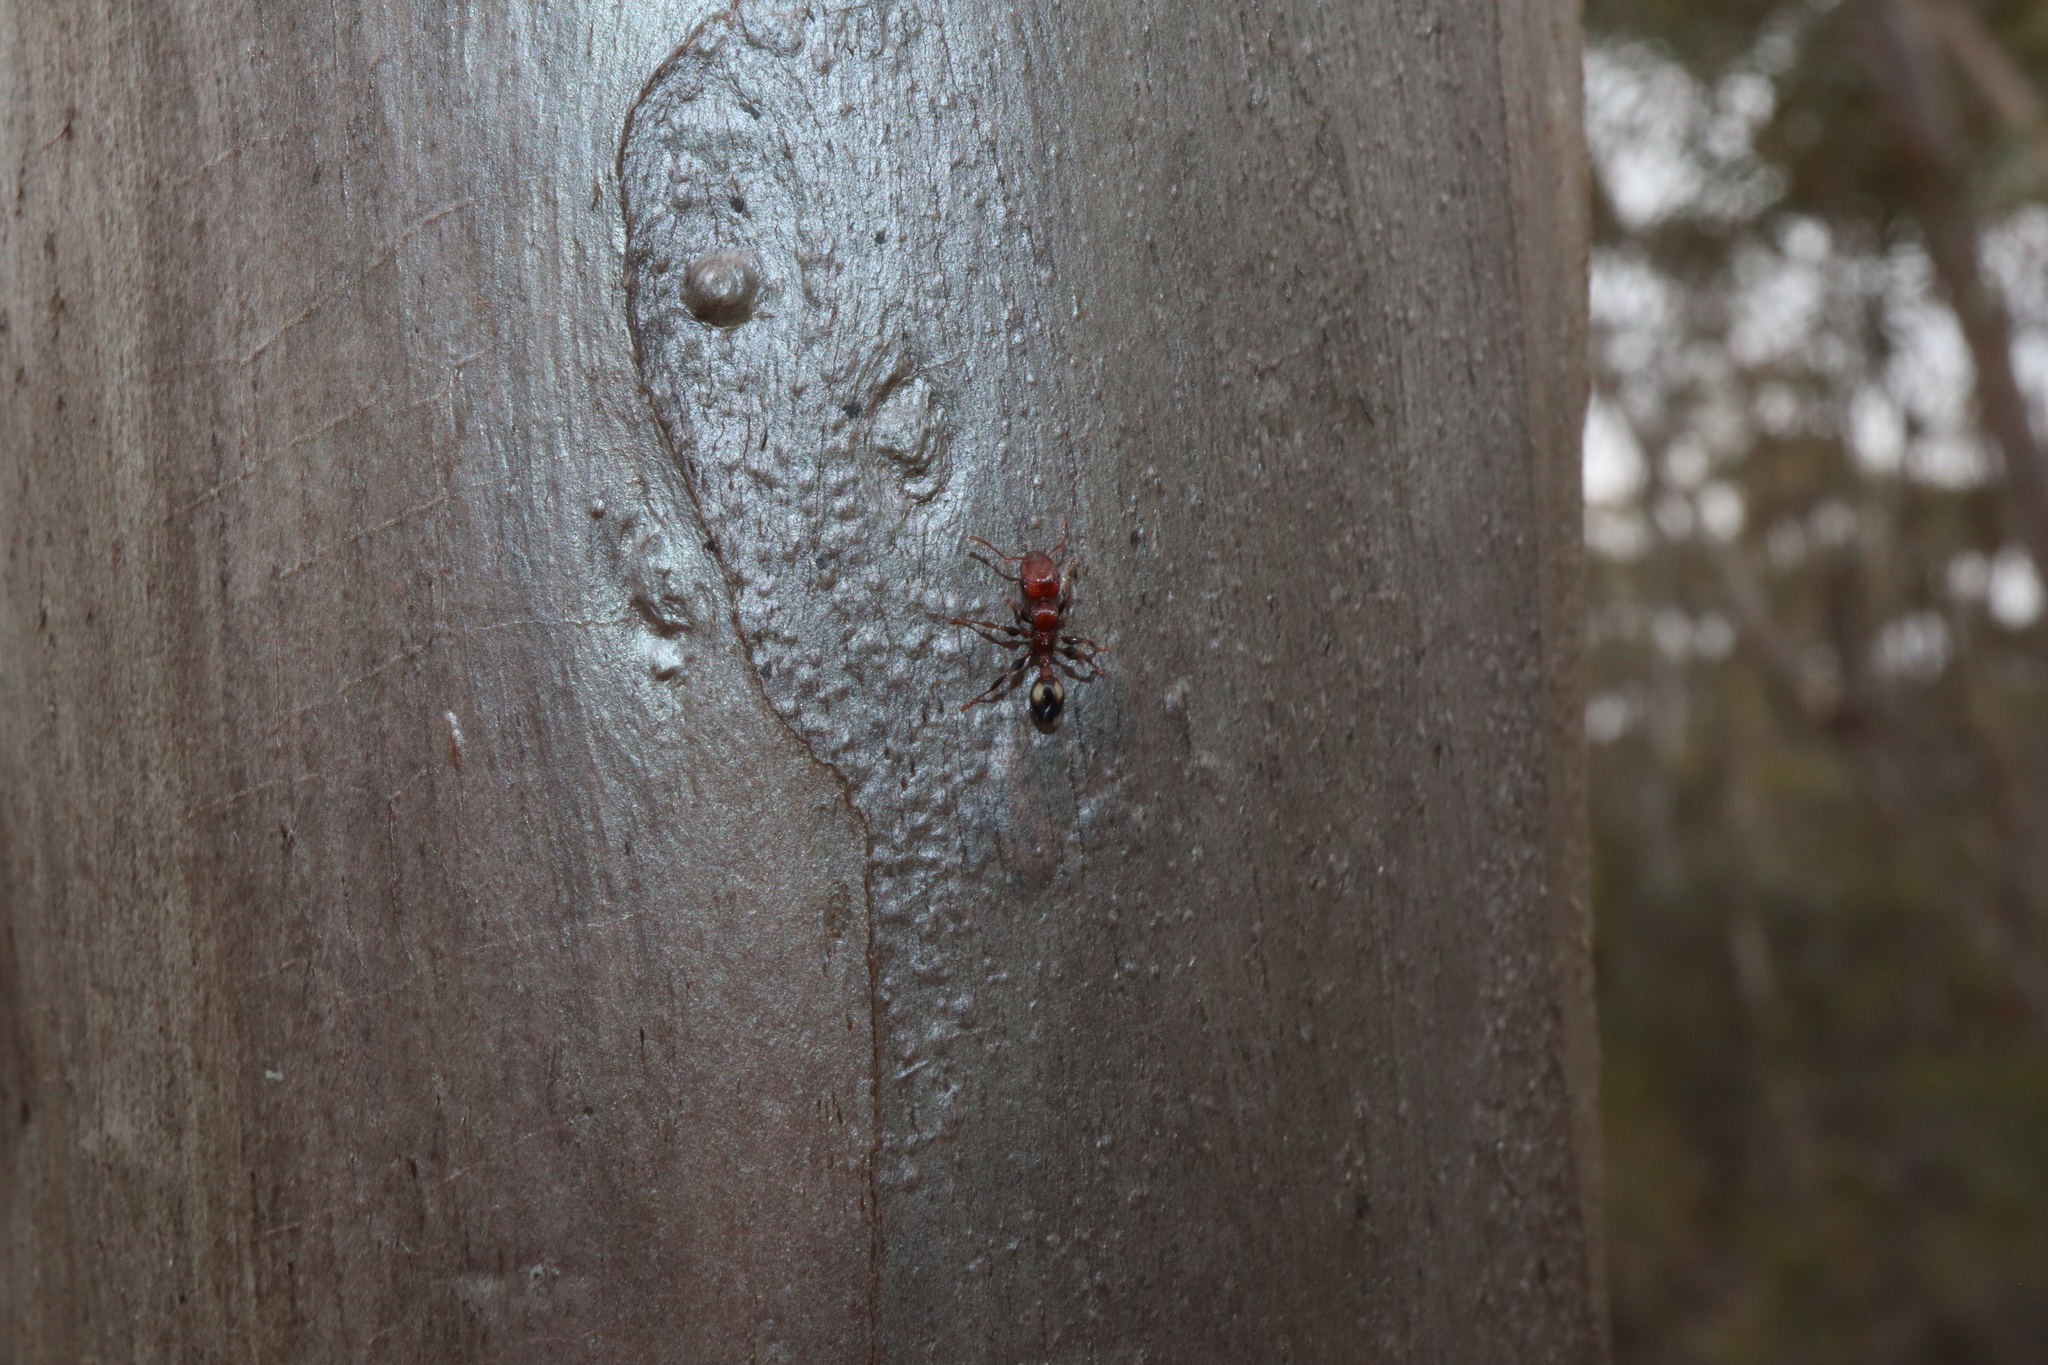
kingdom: Animalia
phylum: Arthropoda
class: Insecta
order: Hymenoptera
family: Formicidae
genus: Podomyrma
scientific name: Podomyrma adelaidae
